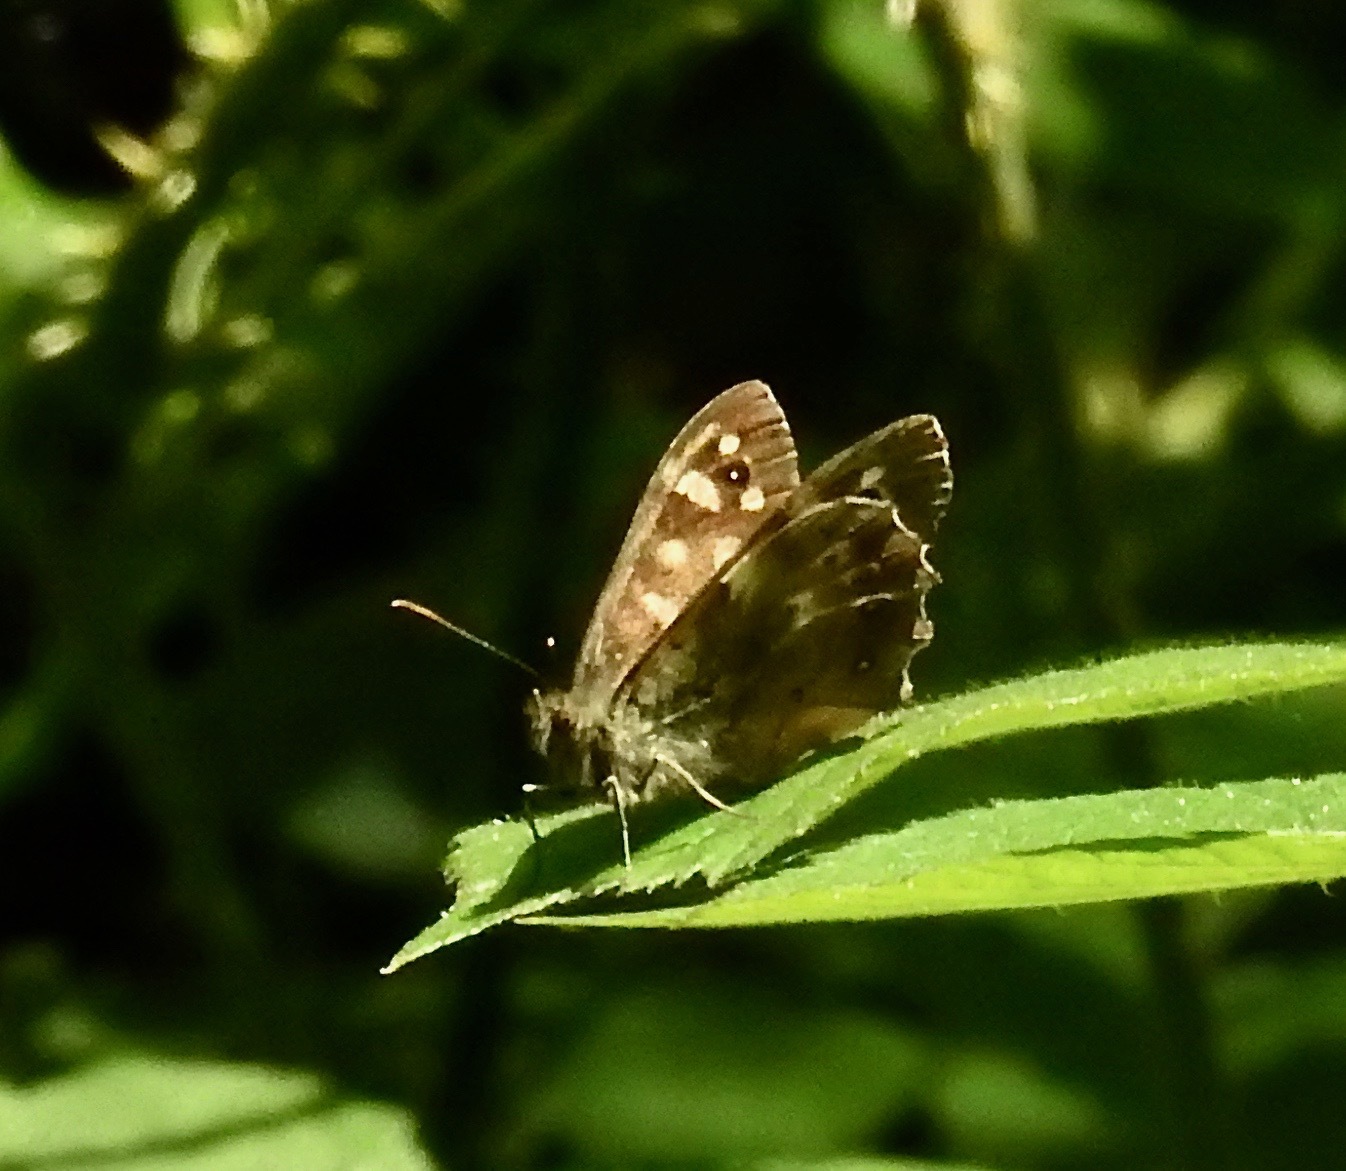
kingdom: Animalia
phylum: Arthropoda
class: Insecta
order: Lepidoptera
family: Nymphalidae
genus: Pararge
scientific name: Pararge aegeria
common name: Speckled wood
